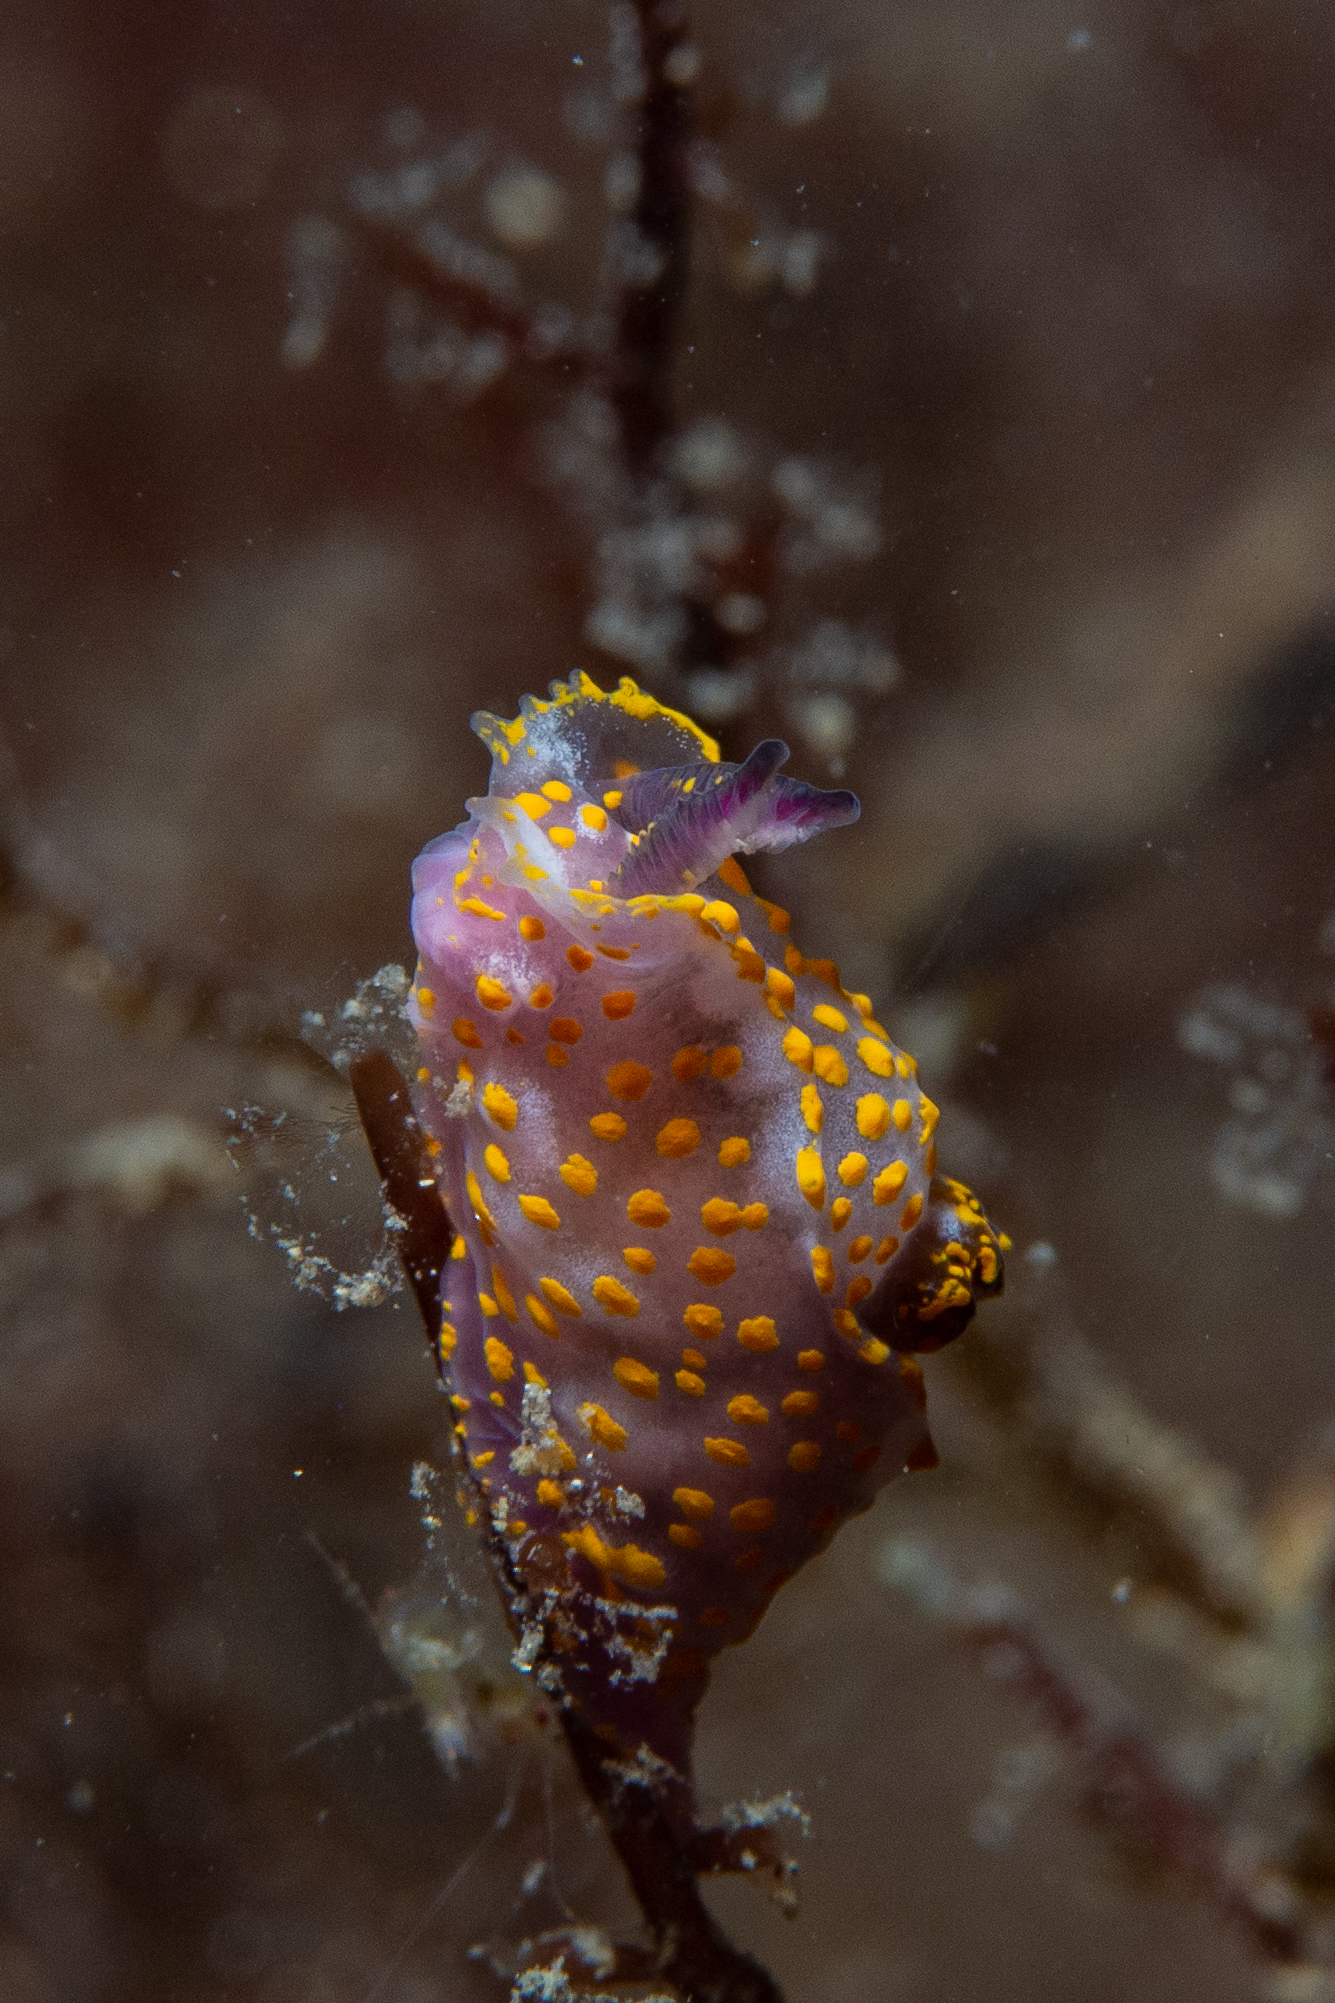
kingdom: Animalia
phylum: Mollusca
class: Gastropoda
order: Nudibranchia
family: Polyceridae
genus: Polycera
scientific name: Polycera janjukia
